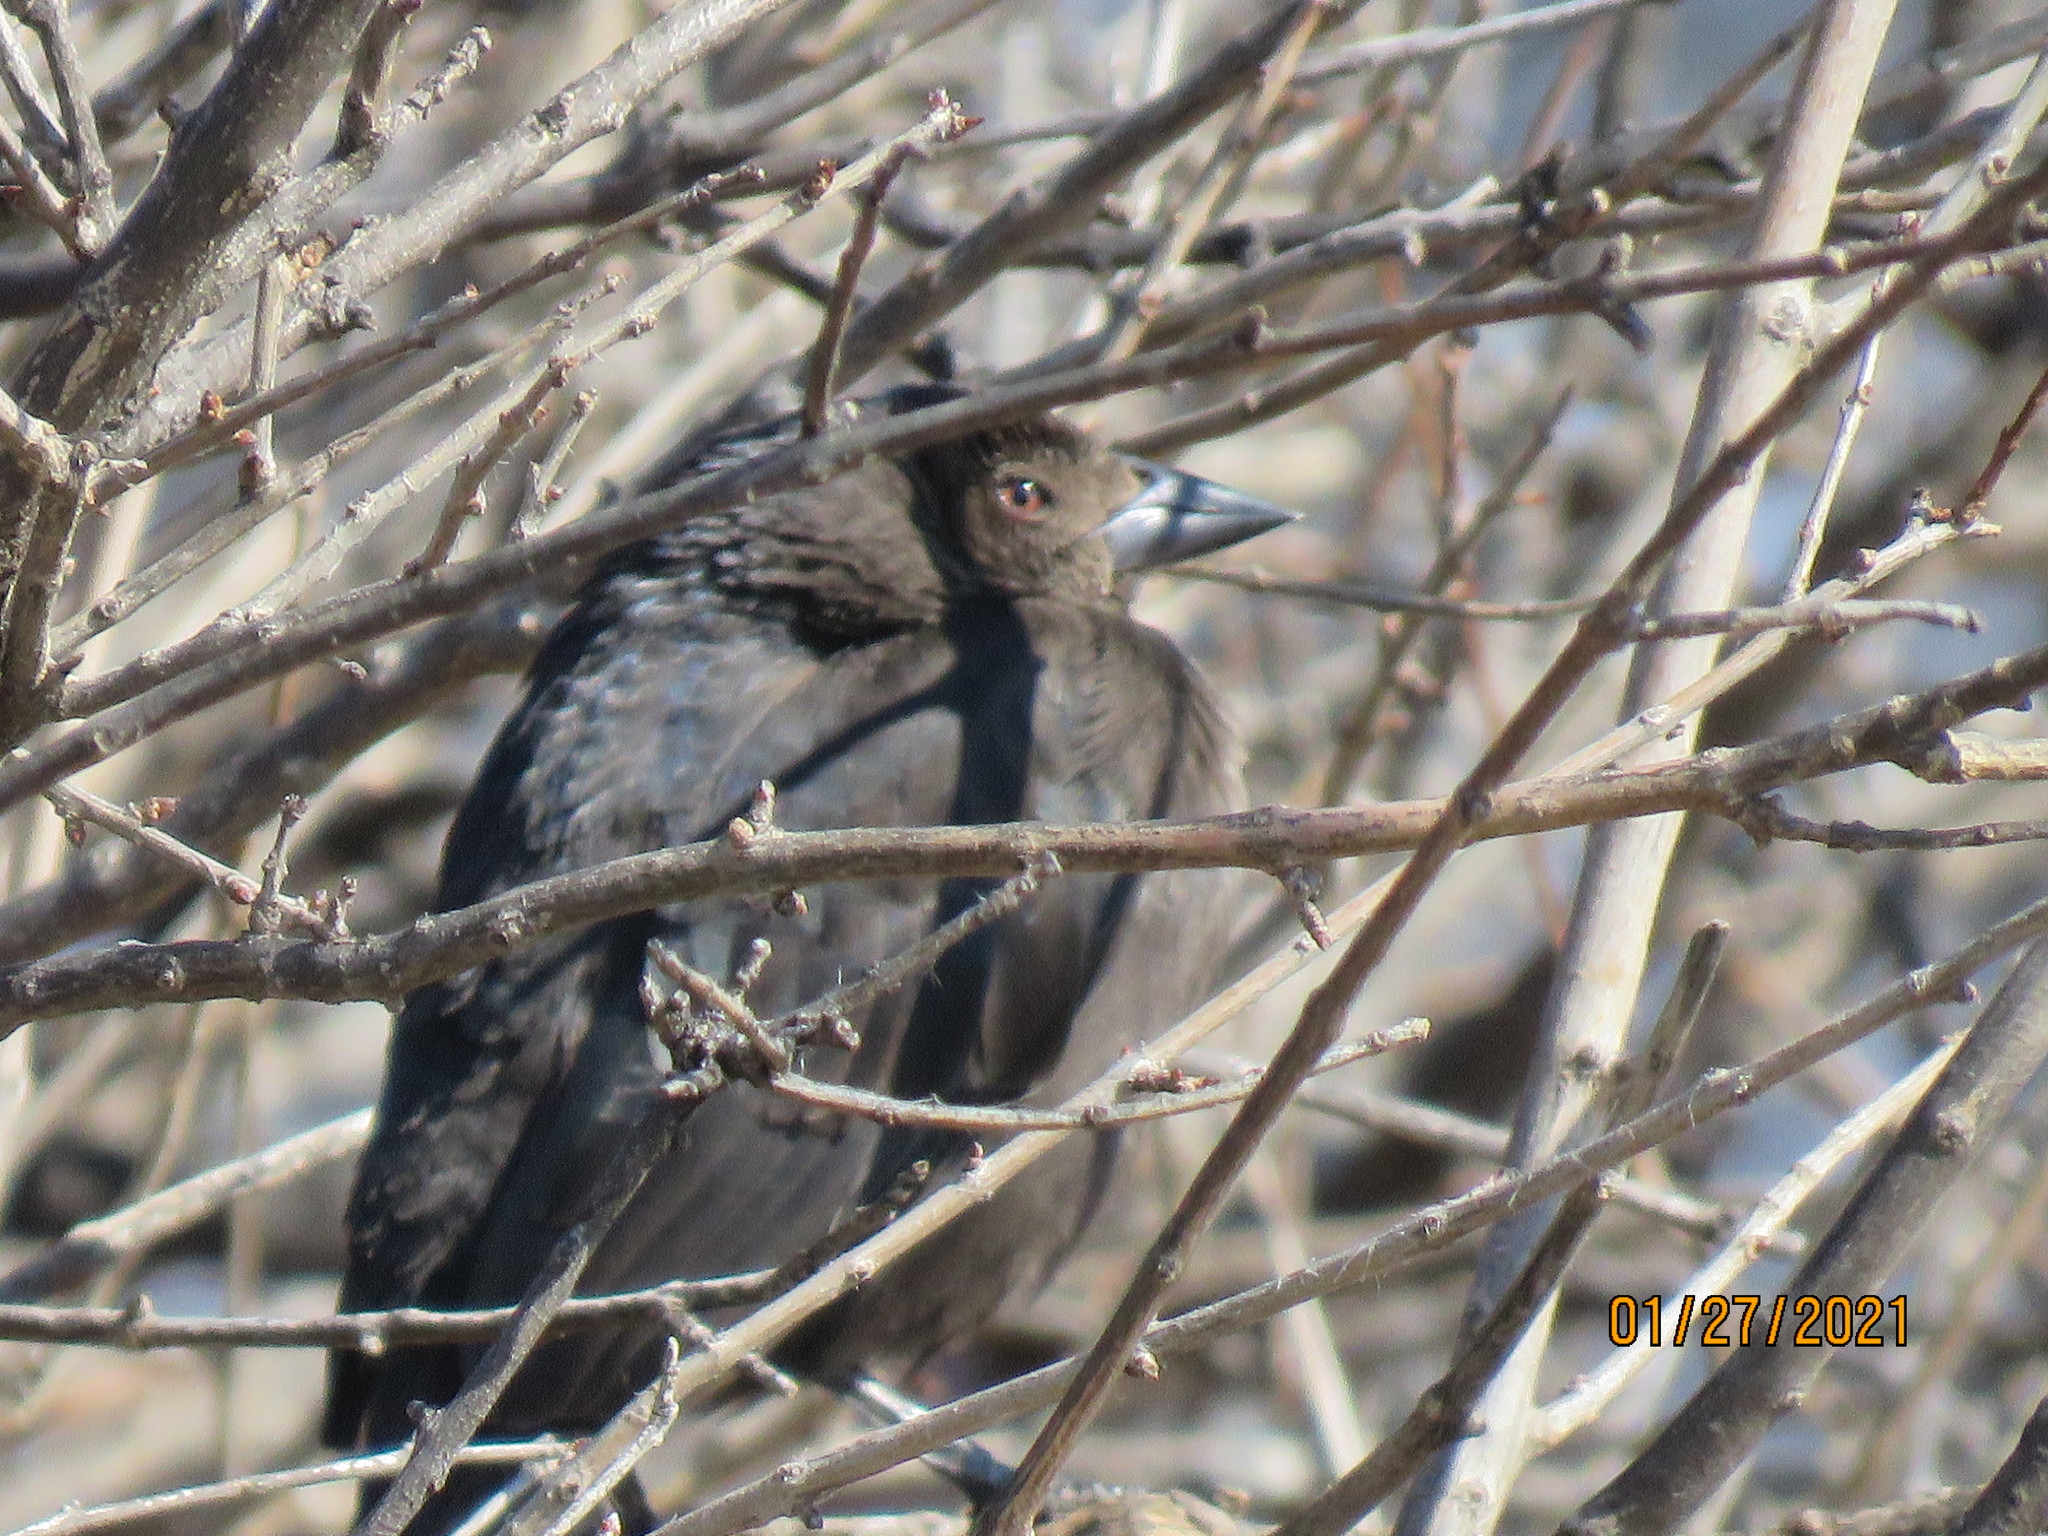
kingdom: Animalia
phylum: Chordata
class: Aves
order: Passeriformes
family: Icteridae
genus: Molothrus
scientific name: Molothrus aeneus
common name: Bronzed cowbird
